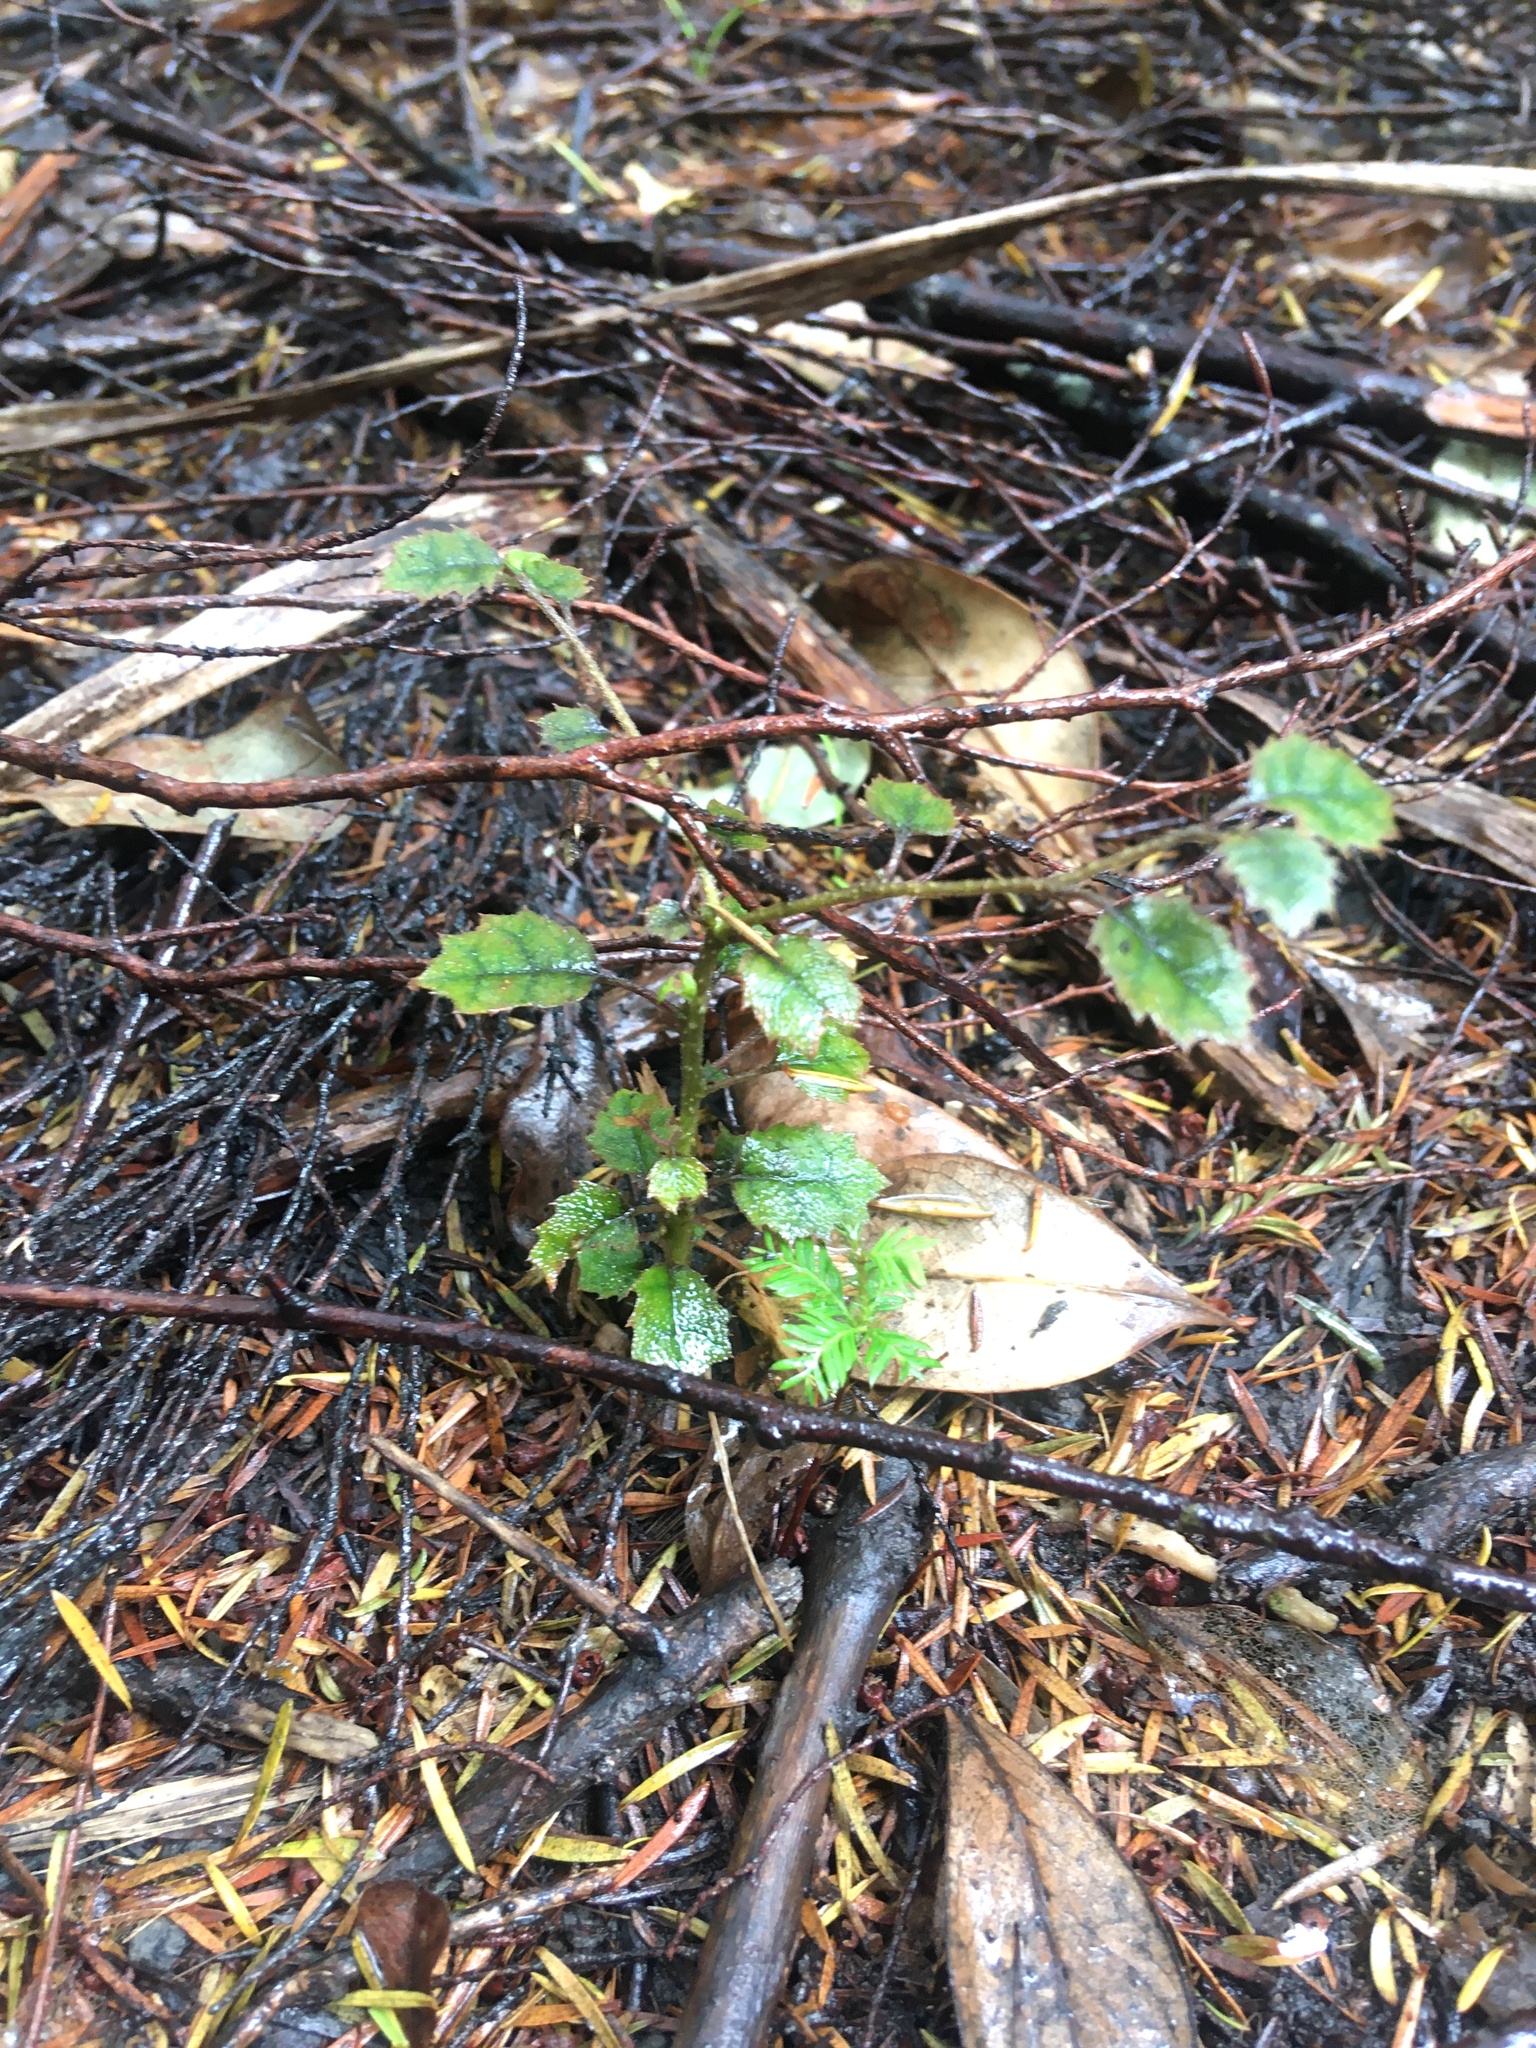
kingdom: Plantae
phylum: Tracheophyta
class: Magnoliopsida
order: Asterales
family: Rousseaceae
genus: Carpodetus
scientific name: Carpodetus serratus
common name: White mapau
